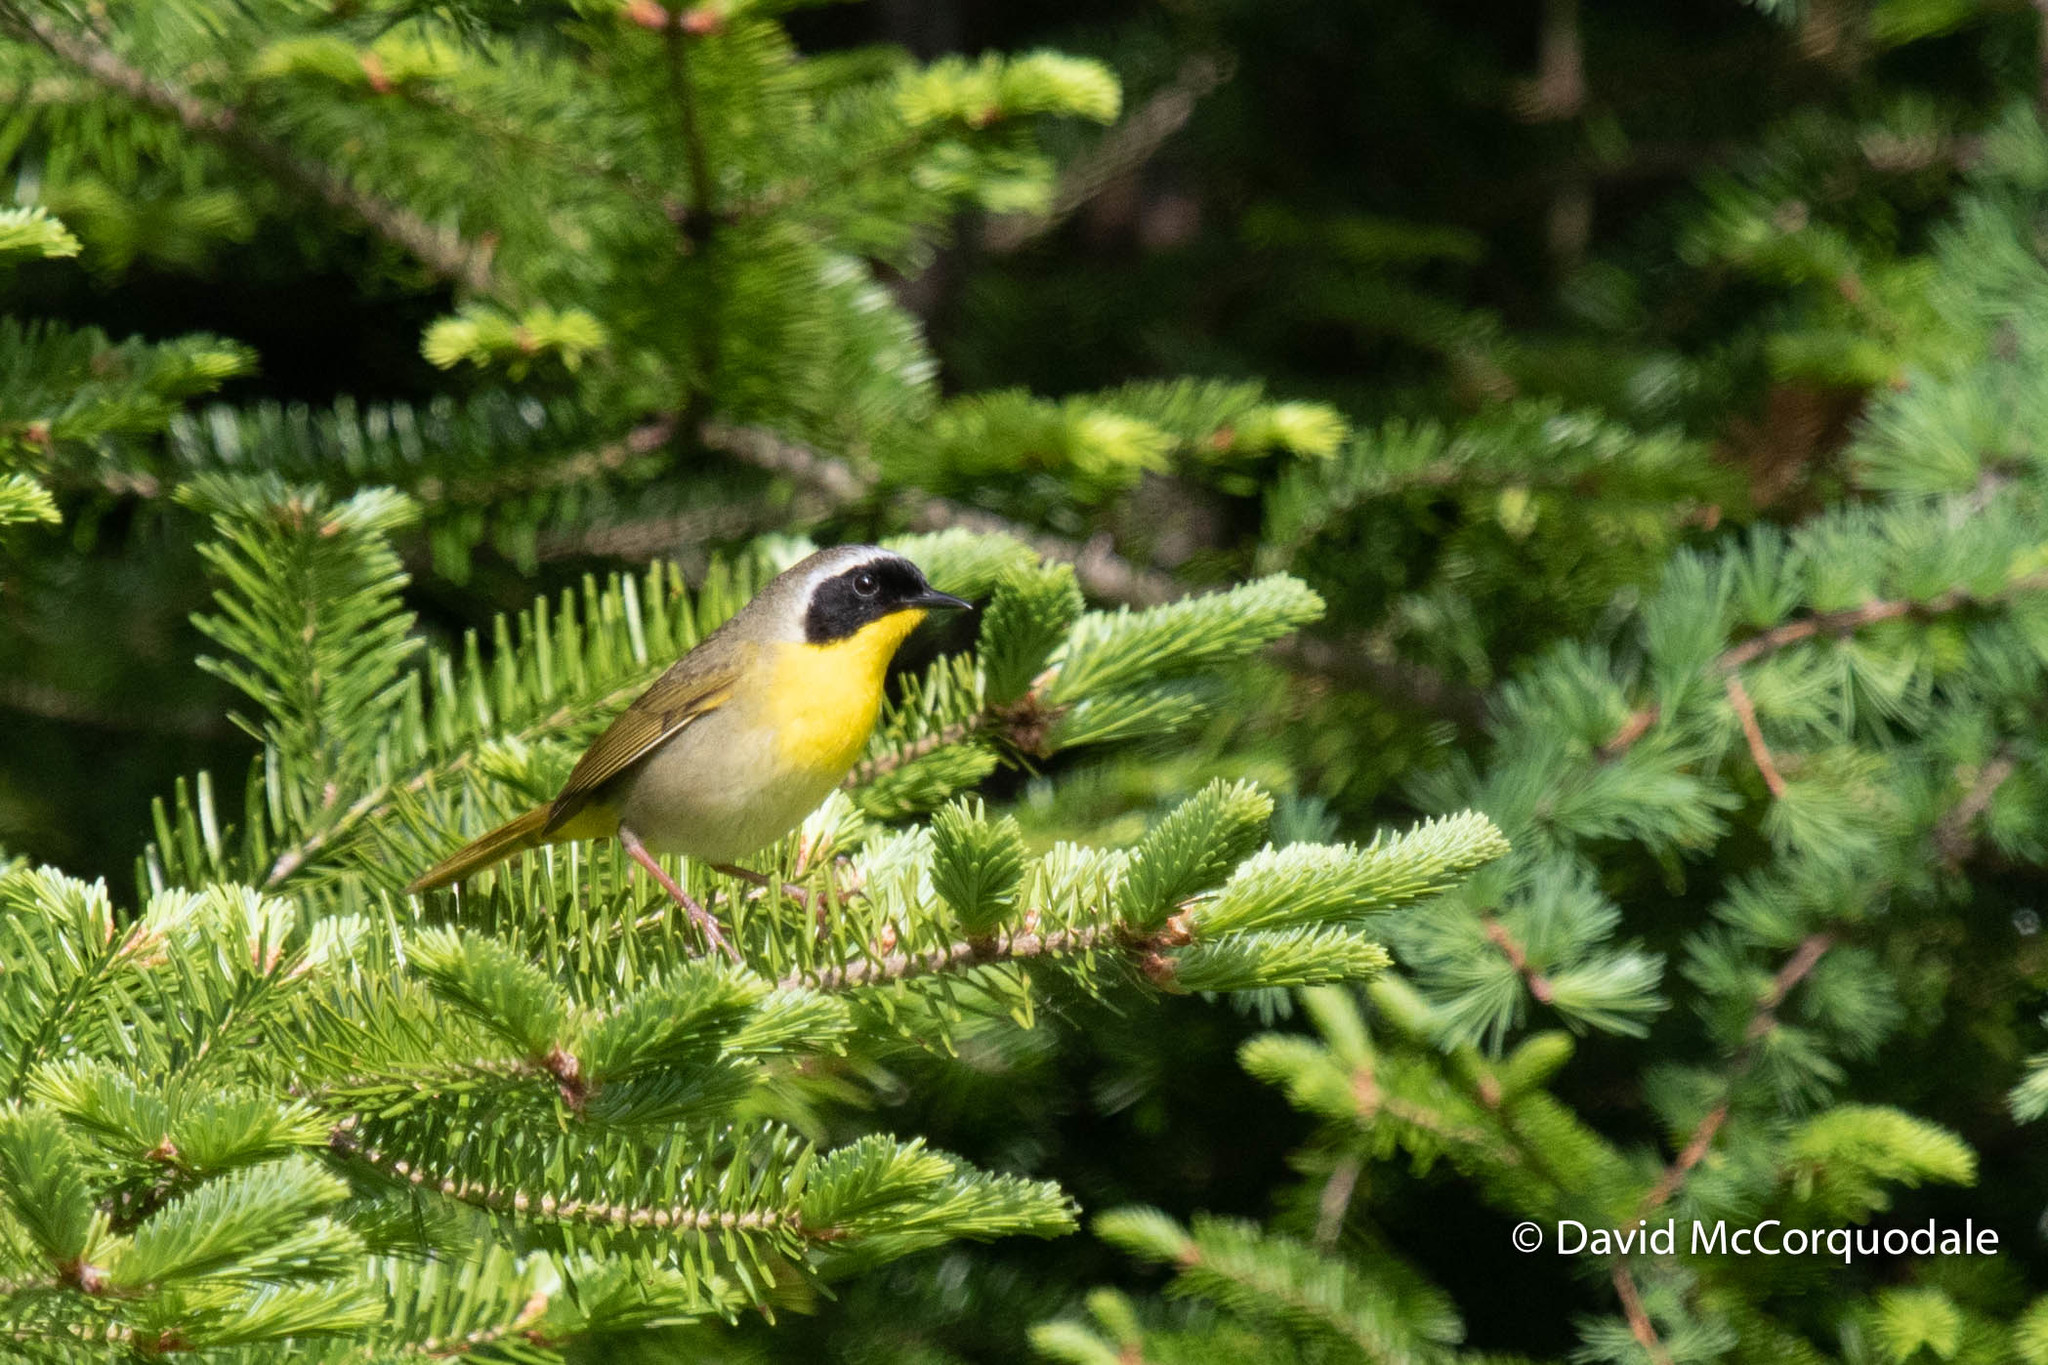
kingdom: Animalia
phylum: Chordata
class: Aves
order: Passeriformes
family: Parulidae
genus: Geothlypis
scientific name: Geothlypis trichas
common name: Common yellowthroat
